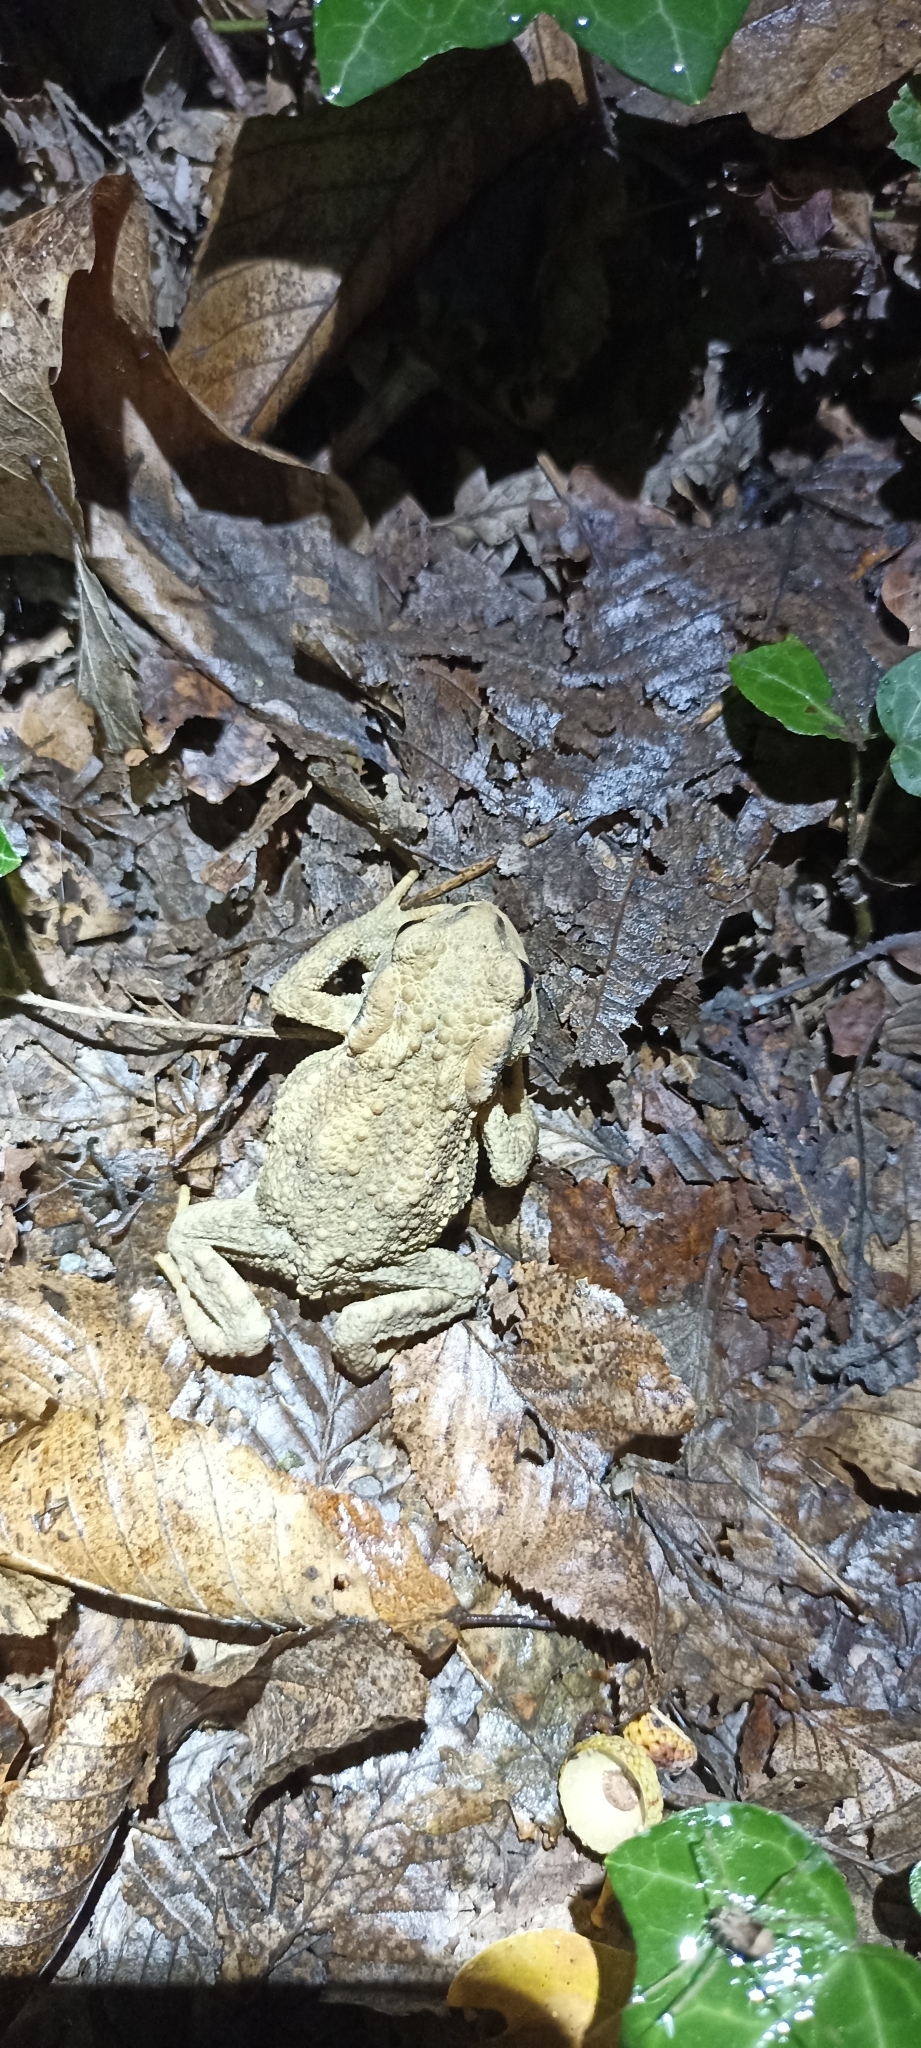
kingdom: Animalia
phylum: Chordata
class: Amphibia
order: Anura
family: Bufonidae
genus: Bufo
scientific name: Bufo spinosus
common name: Western common toad
